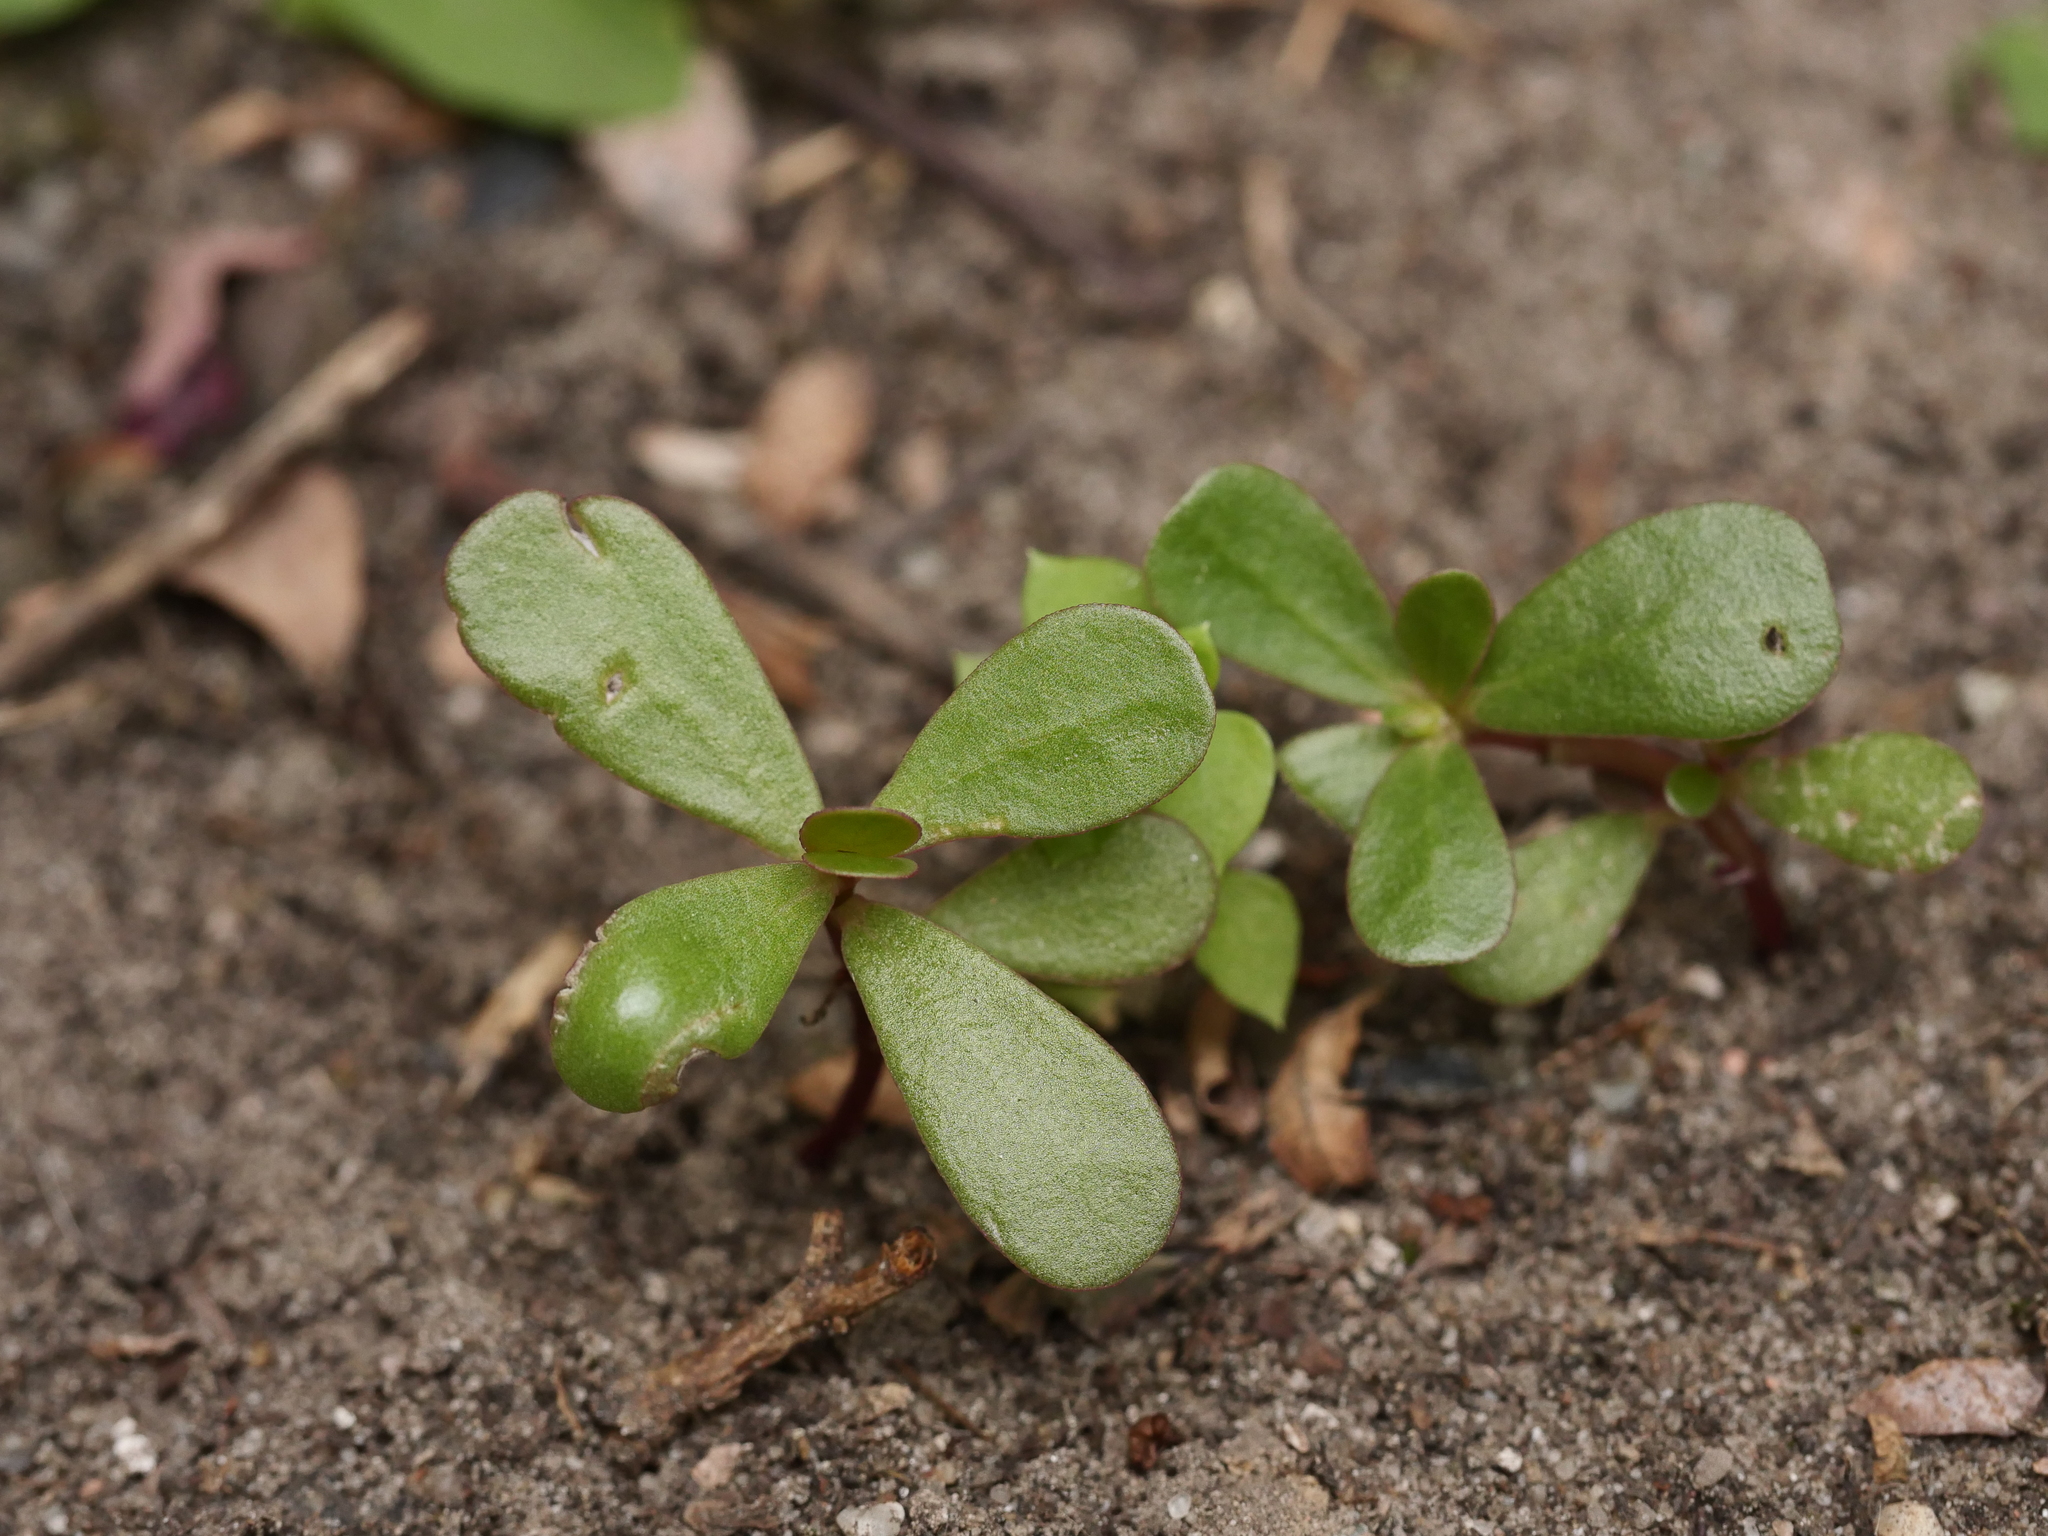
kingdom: Plantae
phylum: Tracheophyta
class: Magnoliopsida
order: Caryophyllales
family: Portulacaceae
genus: Portulaca
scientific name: Portulaca oleracea
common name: Common purslane
